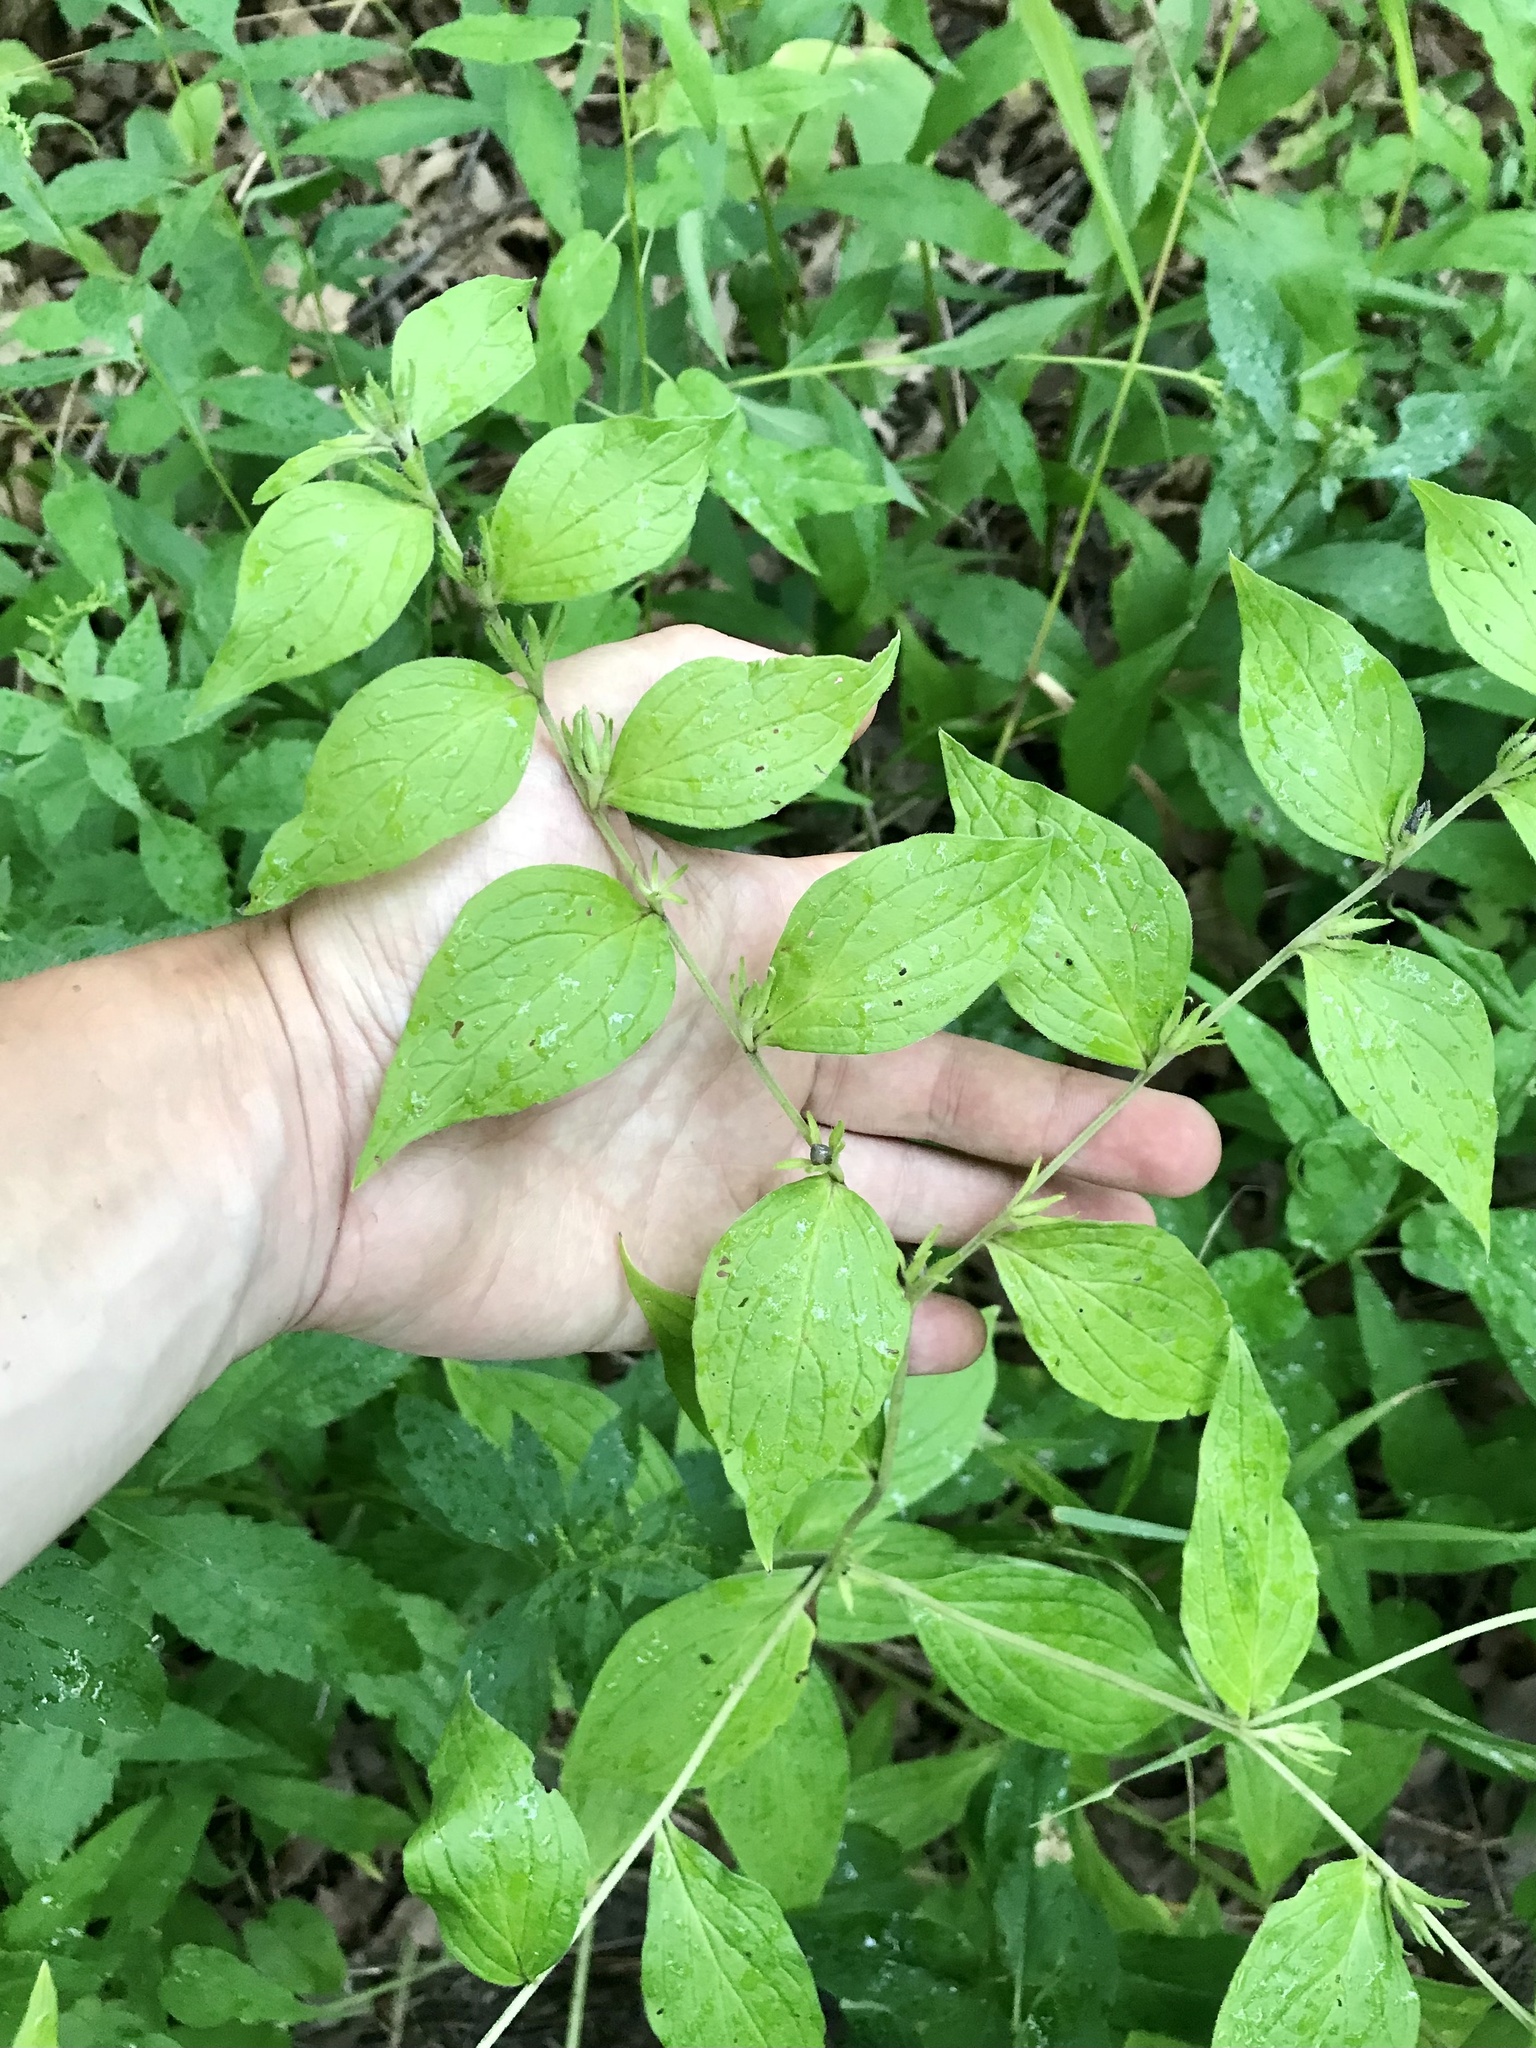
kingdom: Plantae
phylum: Tracheophyta
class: Magnoliopsida
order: Boraginales
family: Boraginaceae
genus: Lithospermum
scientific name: Lithospermum latifolium
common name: American gromwell
